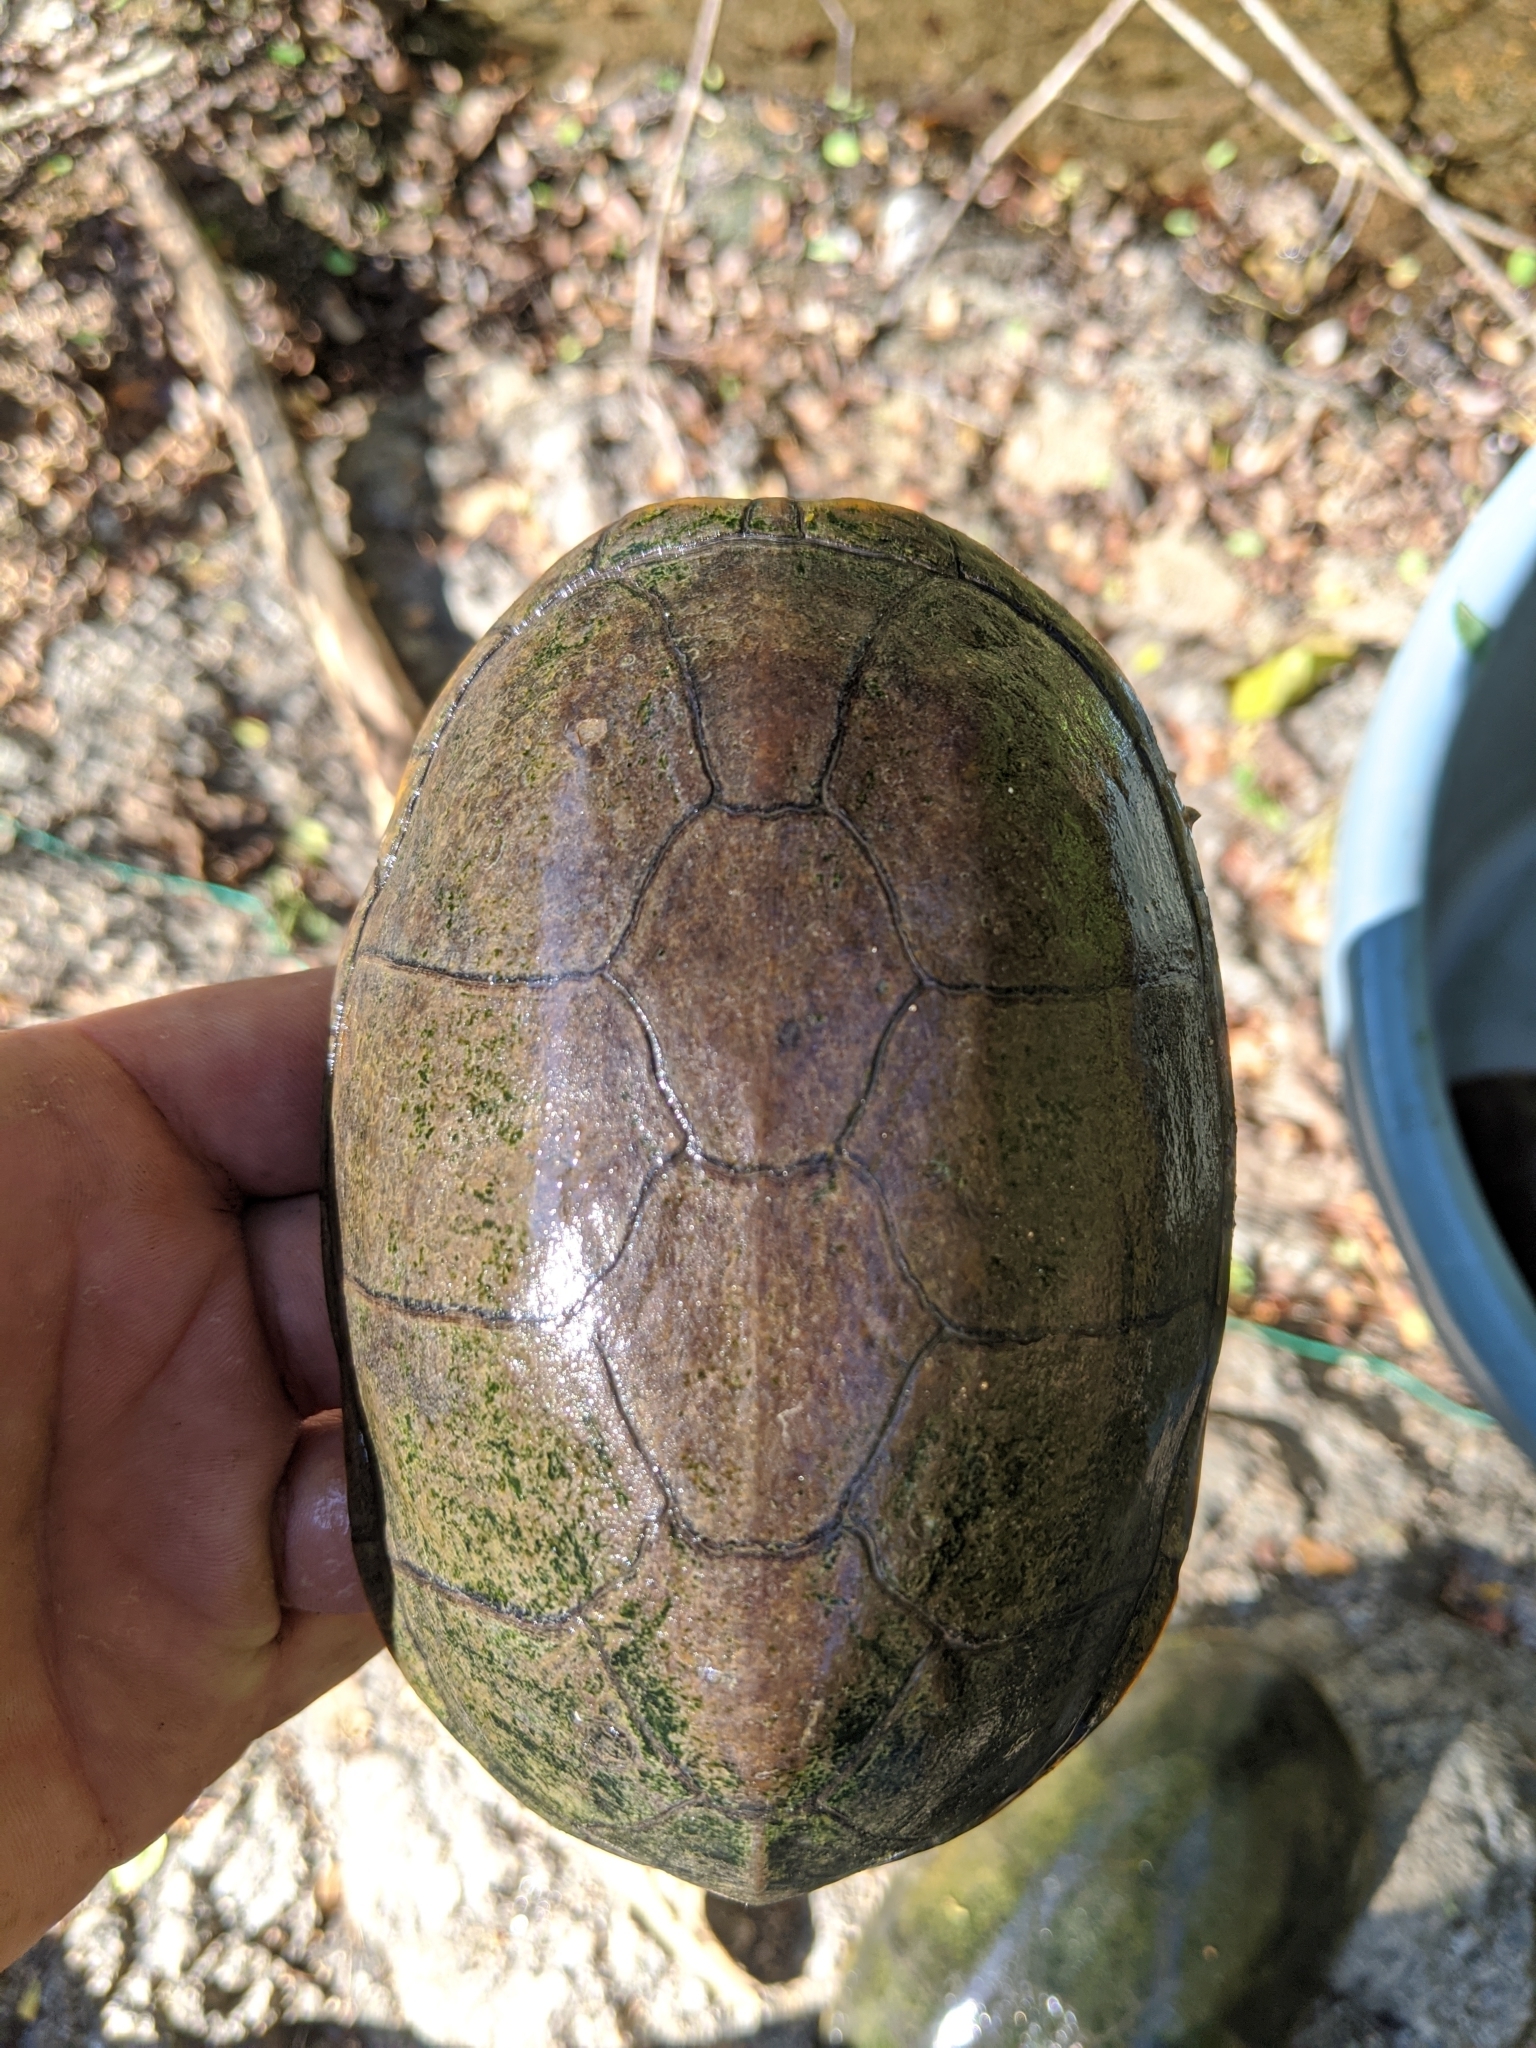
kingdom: Animalia
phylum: Chordata
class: Testudines
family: Kinosternidae
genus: Kinosternon
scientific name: Kinosternon chimalhuaca
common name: Jalisco mud turtle
